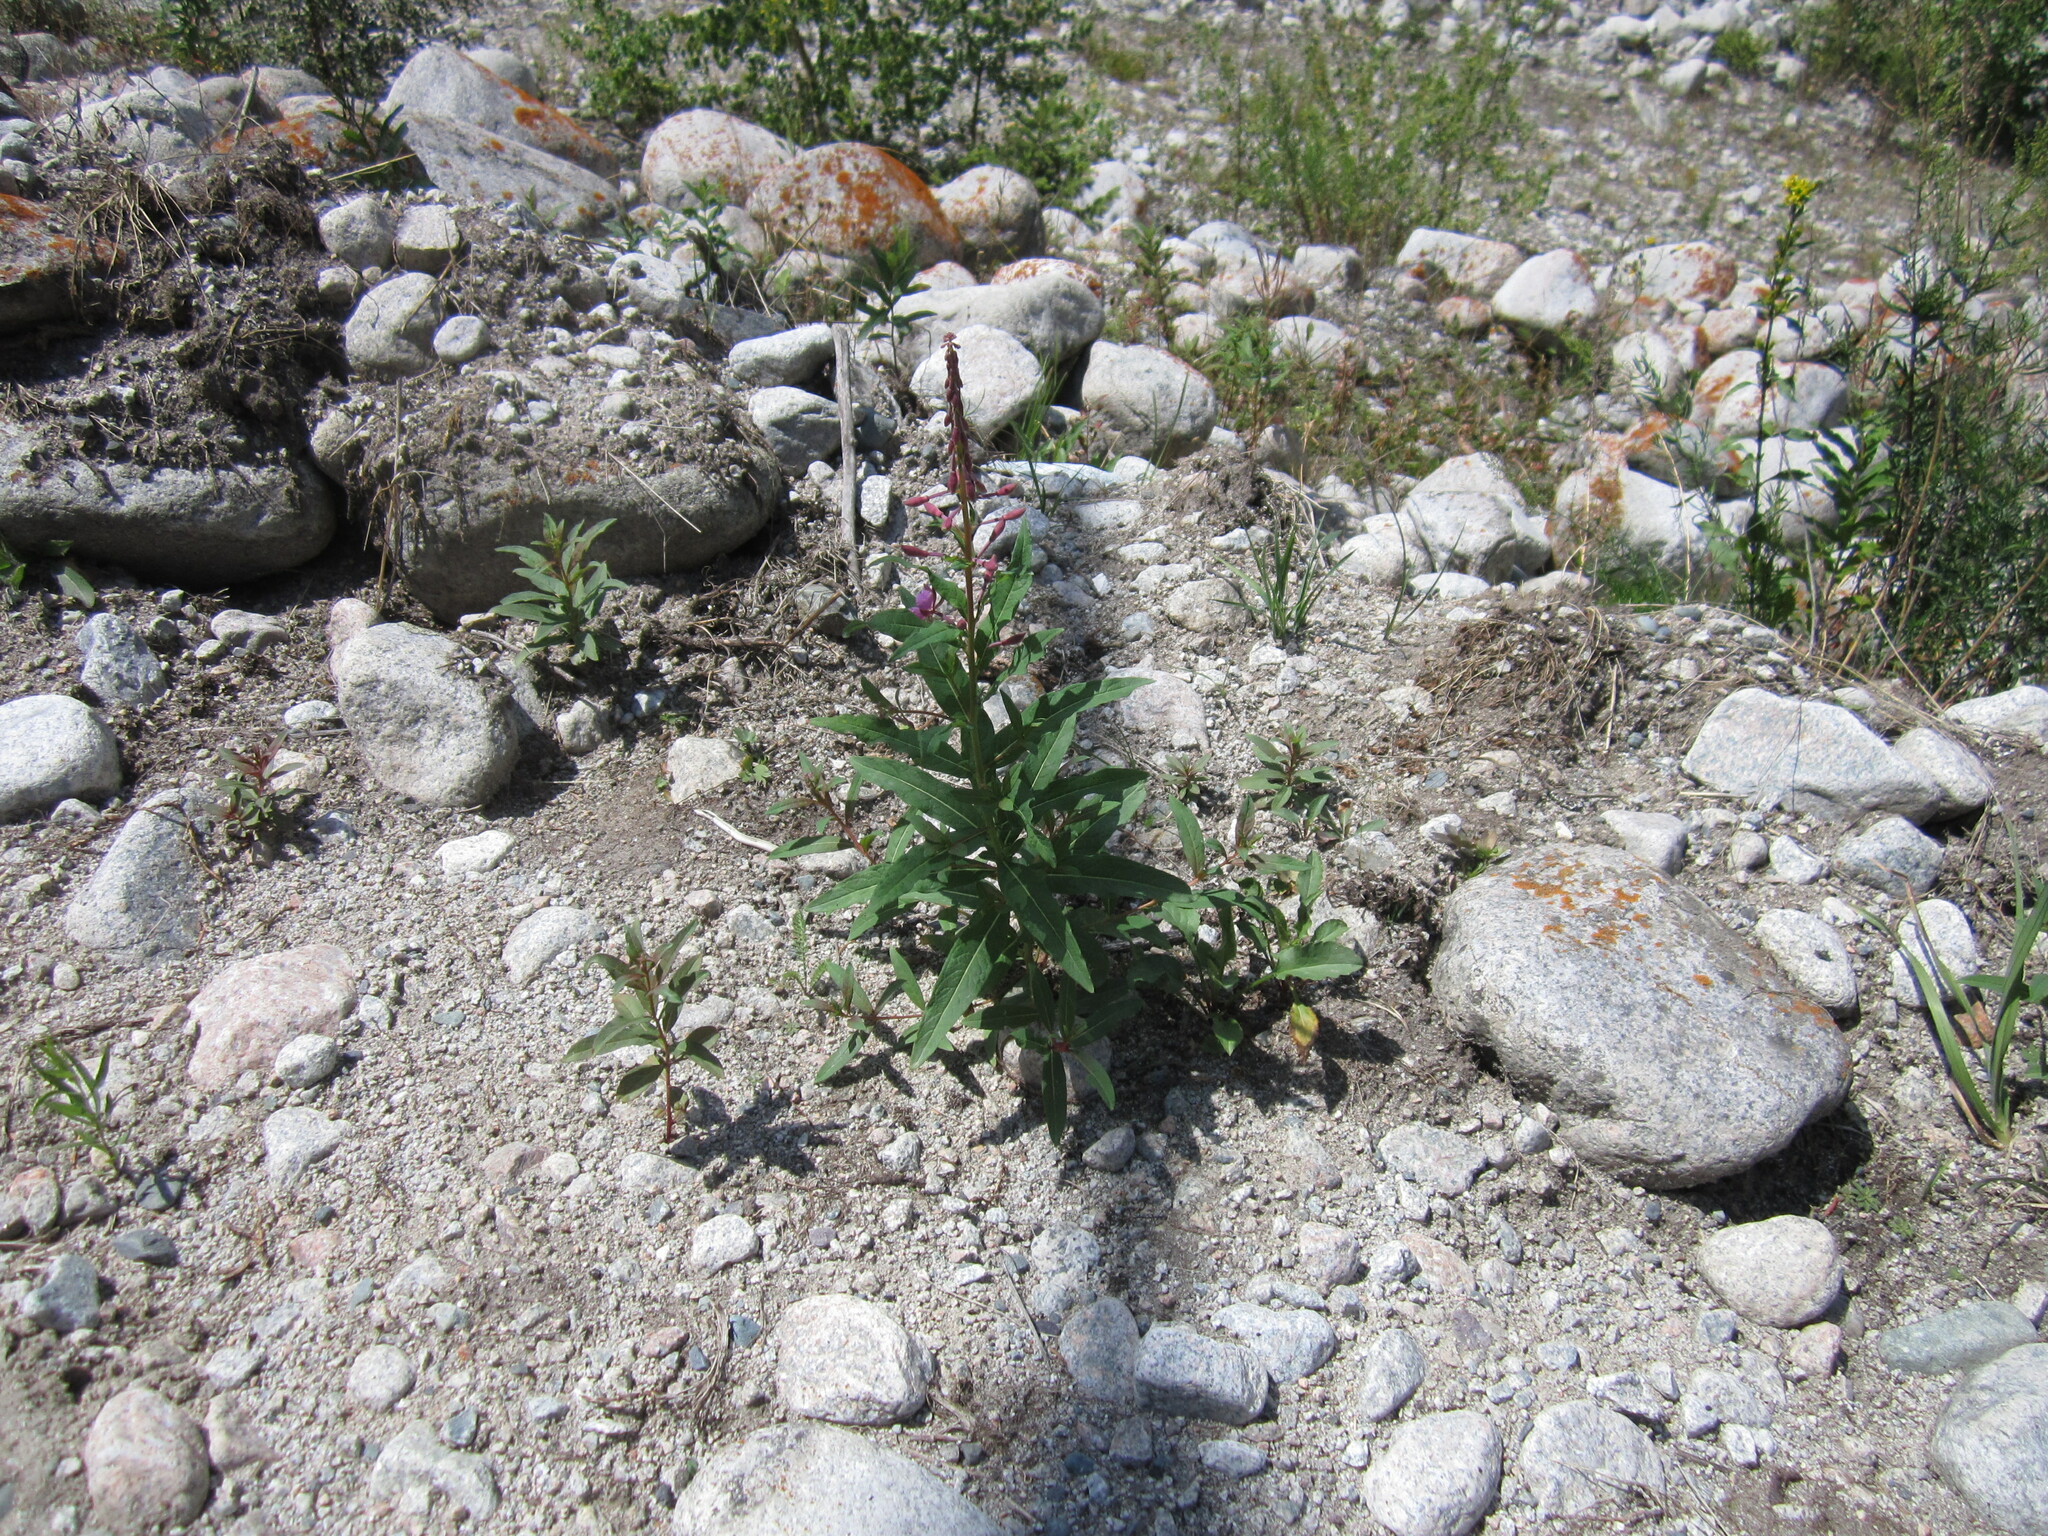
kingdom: Plantae
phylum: Tracheophyta
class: Magnoliopsida
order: Myrtales
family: Onagraceae
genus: Chamaenerion
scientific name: Chamaenerion angustifolium
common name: Fireweed
